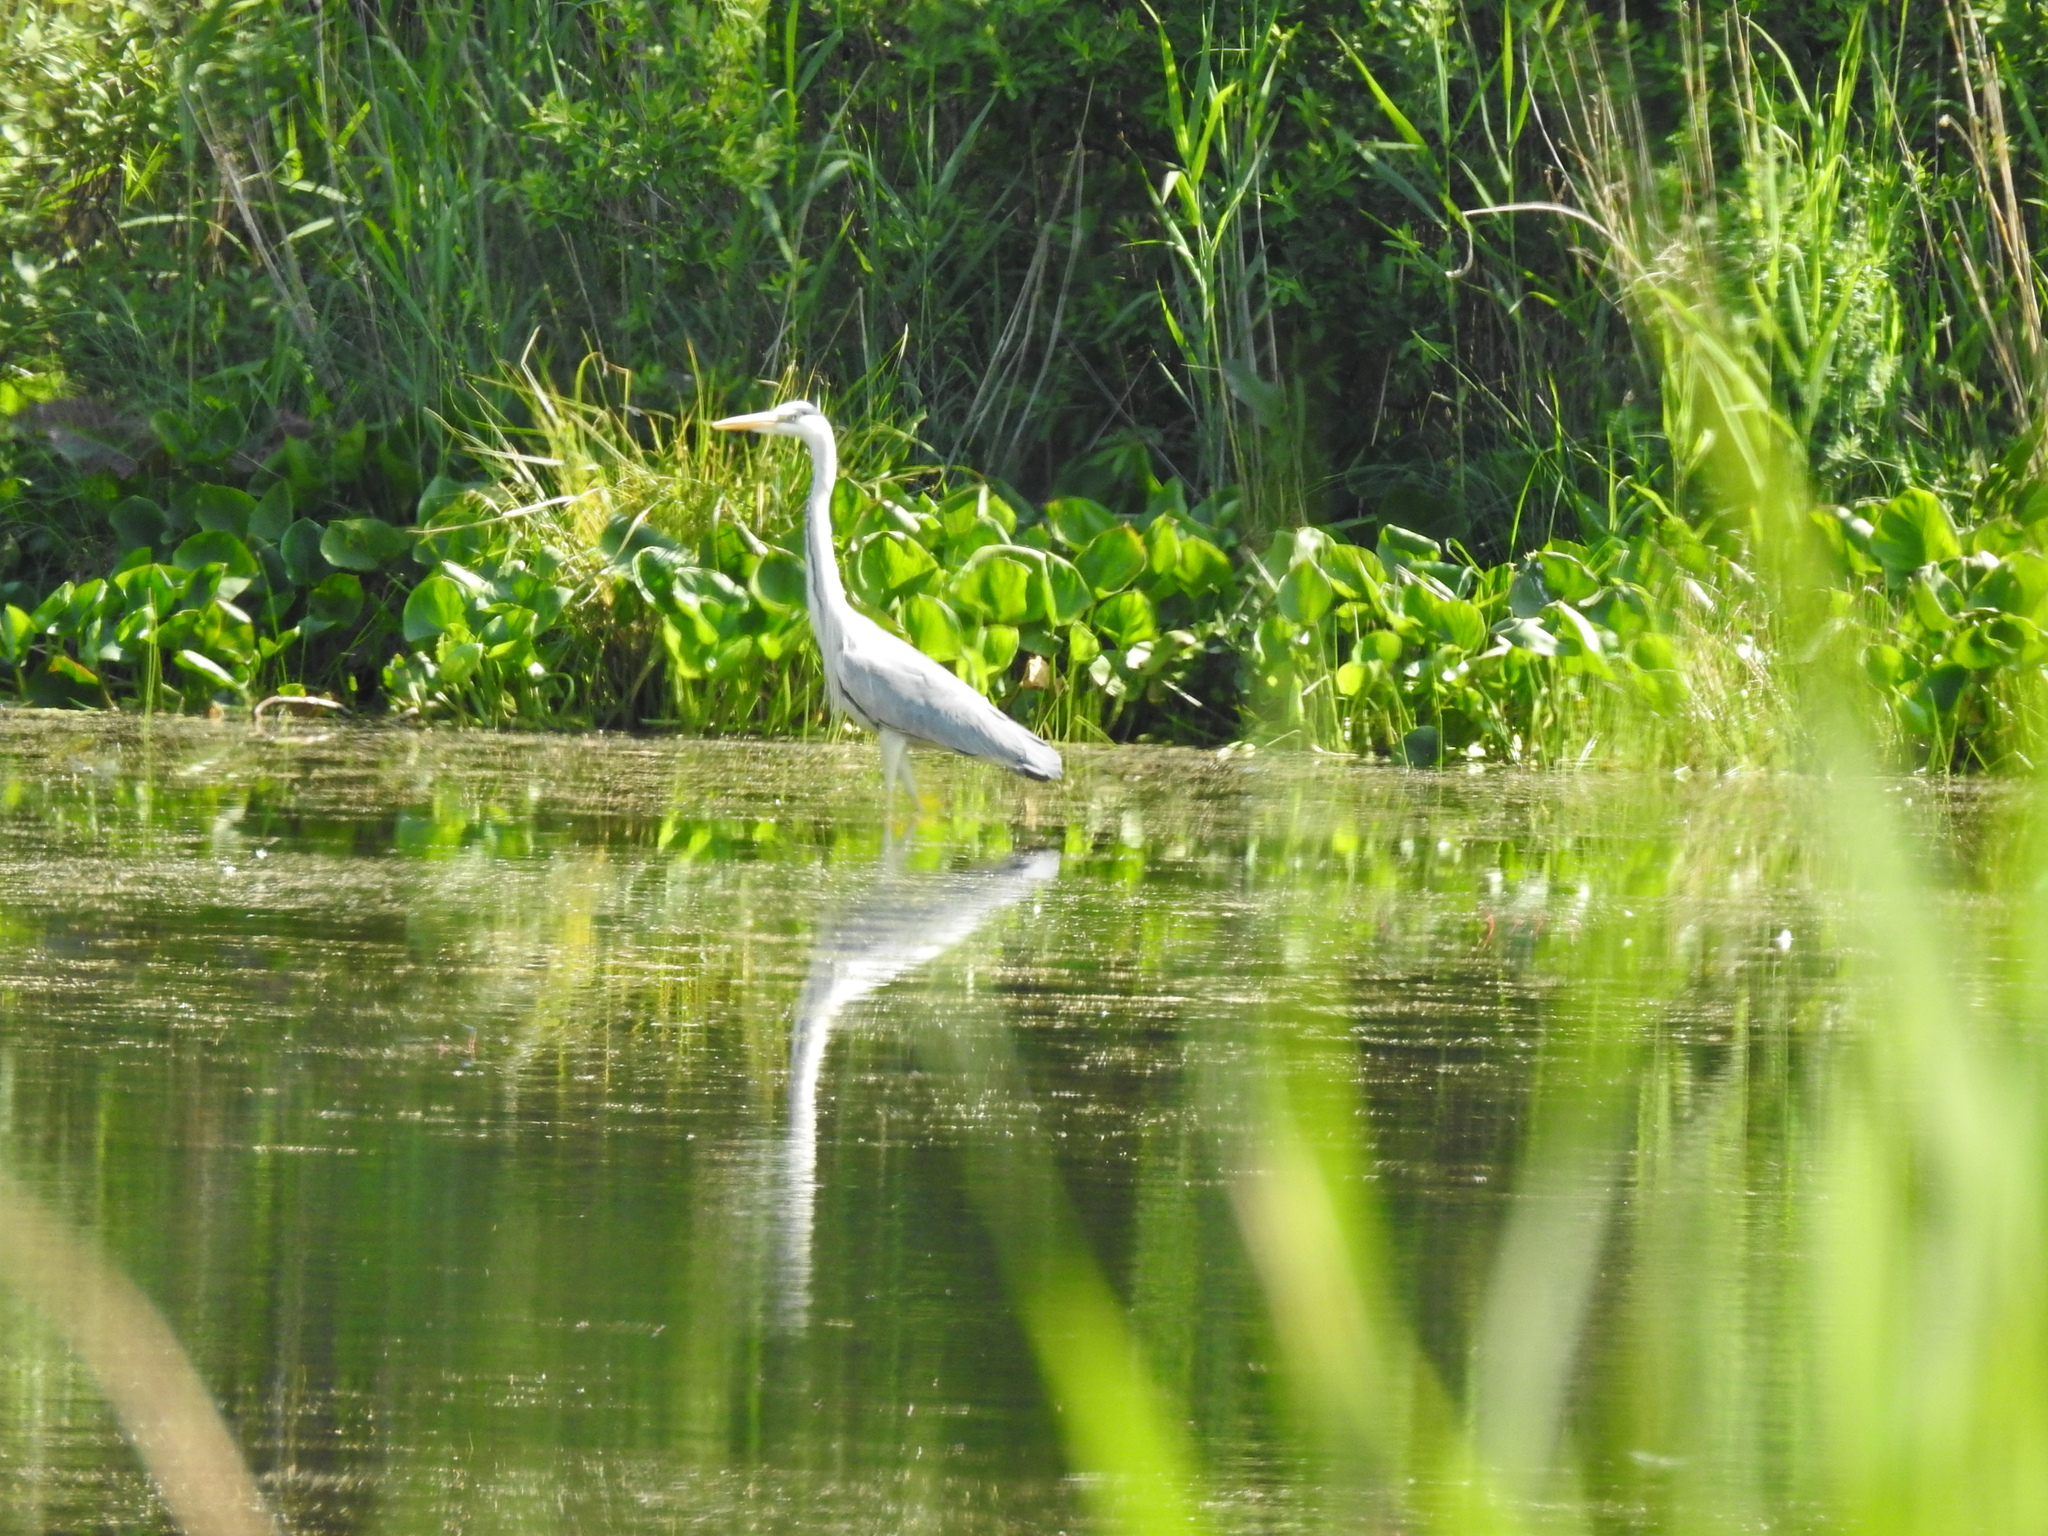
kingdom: Animalia
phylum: Chordata
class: Aves
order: Pelecaniformes
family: Ardeidae
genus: Ardea
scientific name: Ardea cinerea
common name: Grey heron
